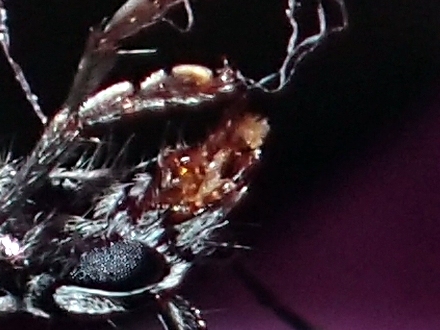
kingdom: Animalia
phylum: Arthropoda
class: Insecta
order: Coleoptera
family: Cerambycidae
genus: Coptomma
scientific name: Coptomma sulcatum
